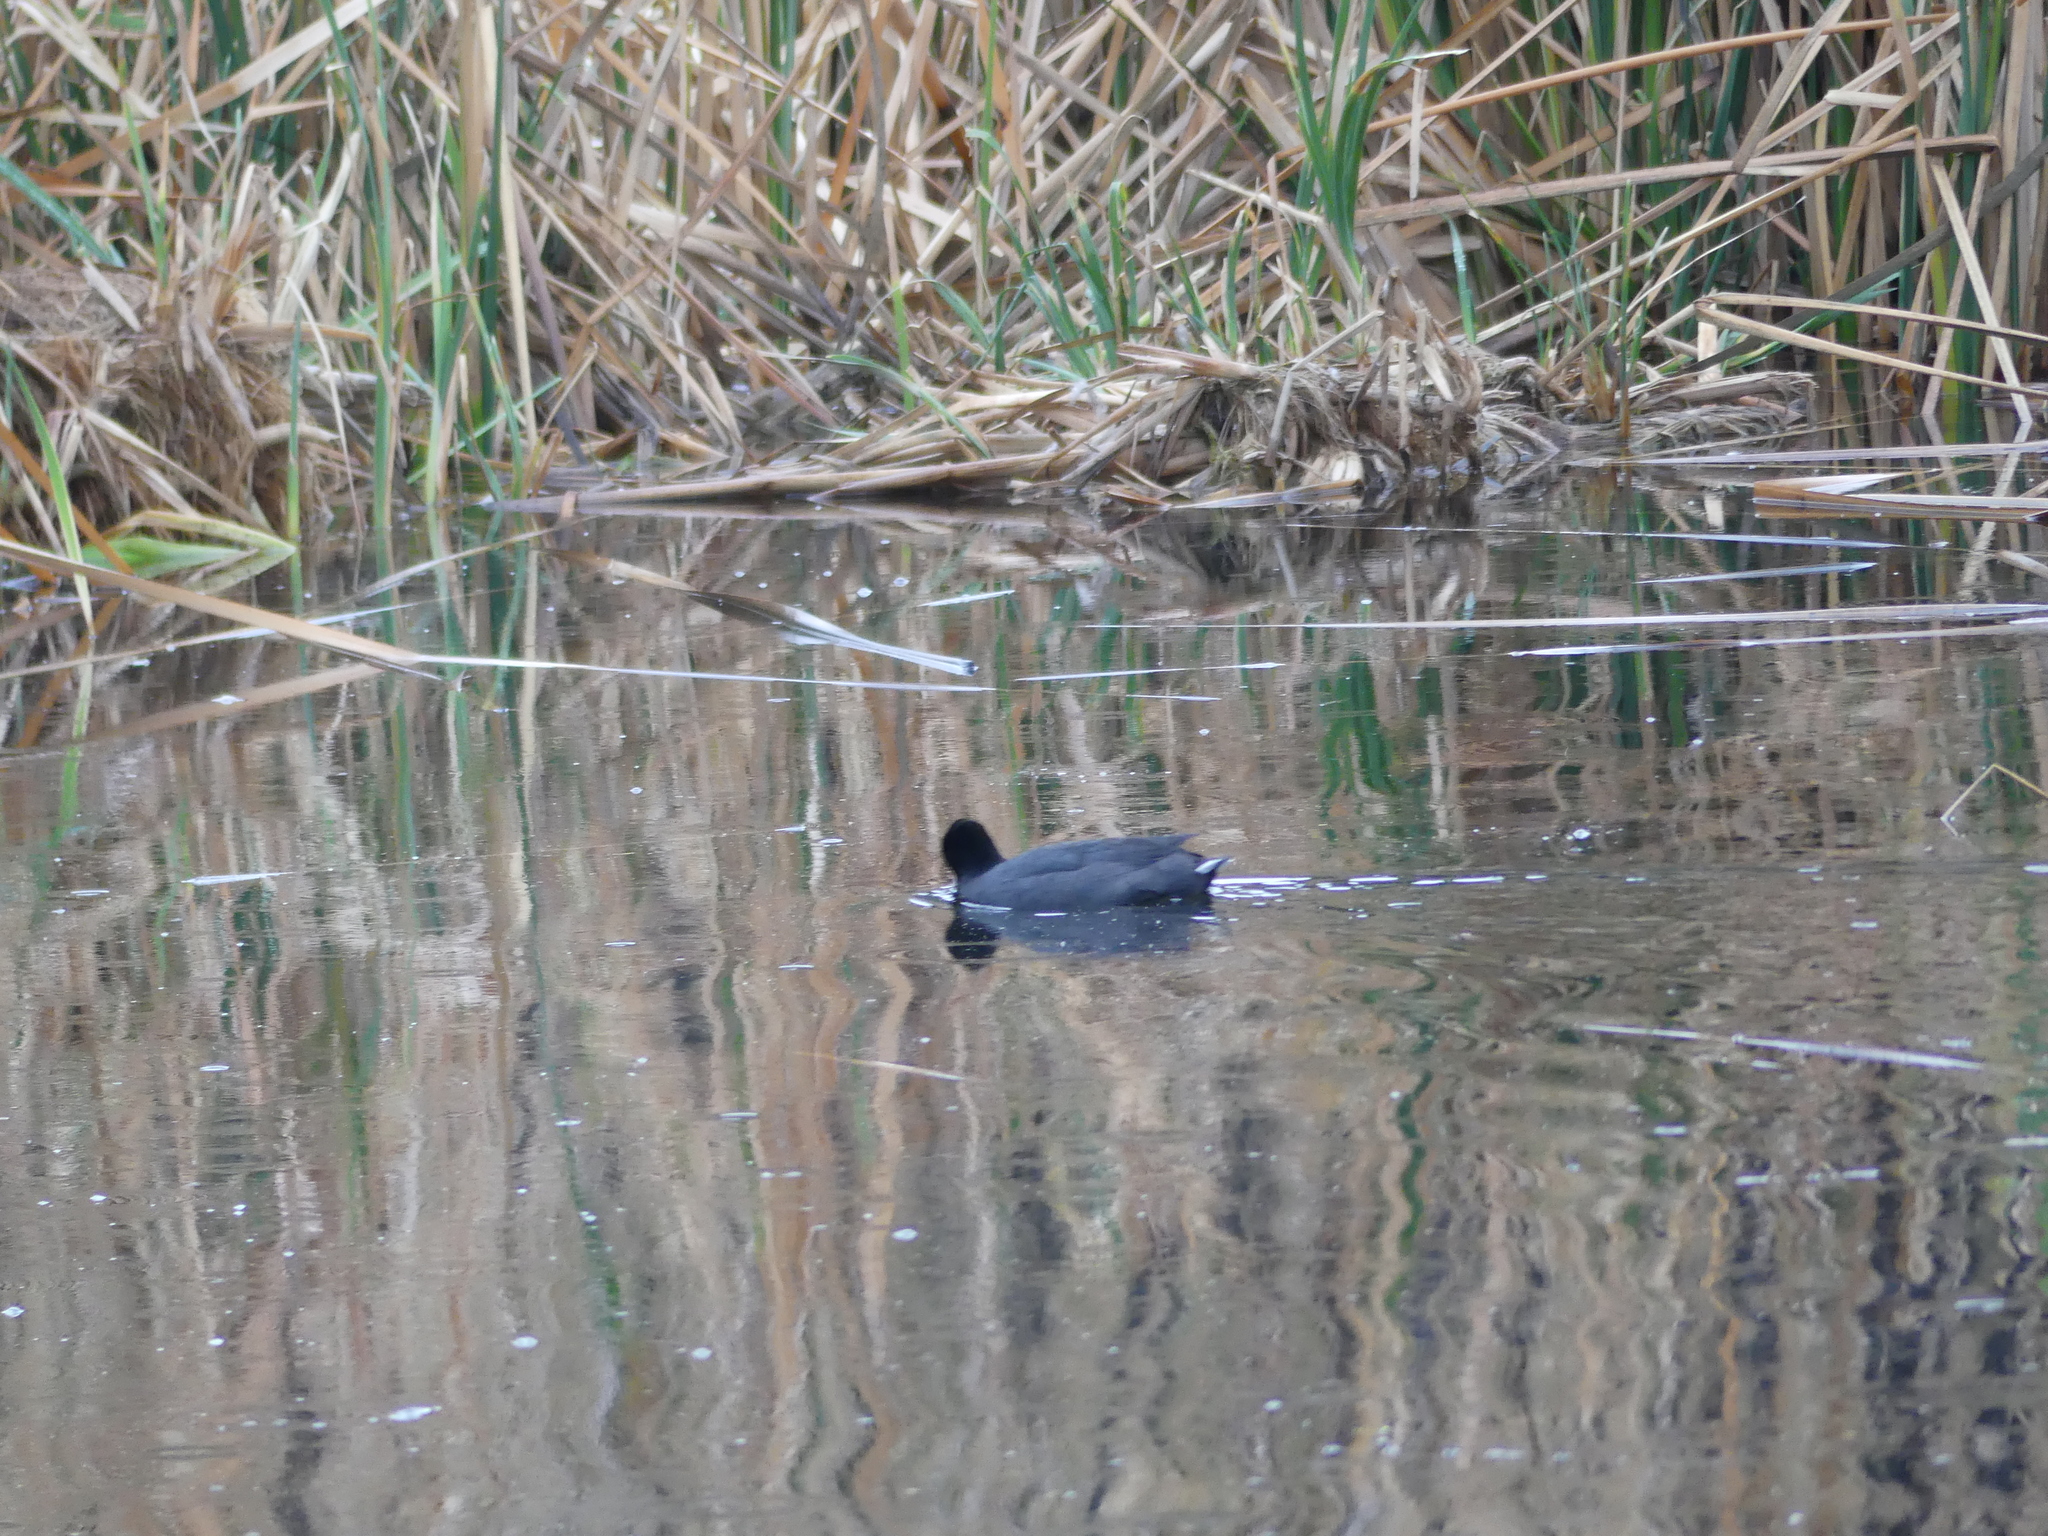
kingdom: Animalia
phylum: Chordata
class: Aves
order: Gruiformes
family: Rallidae
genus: Fulica
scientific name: Fulica americana
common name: American coot
